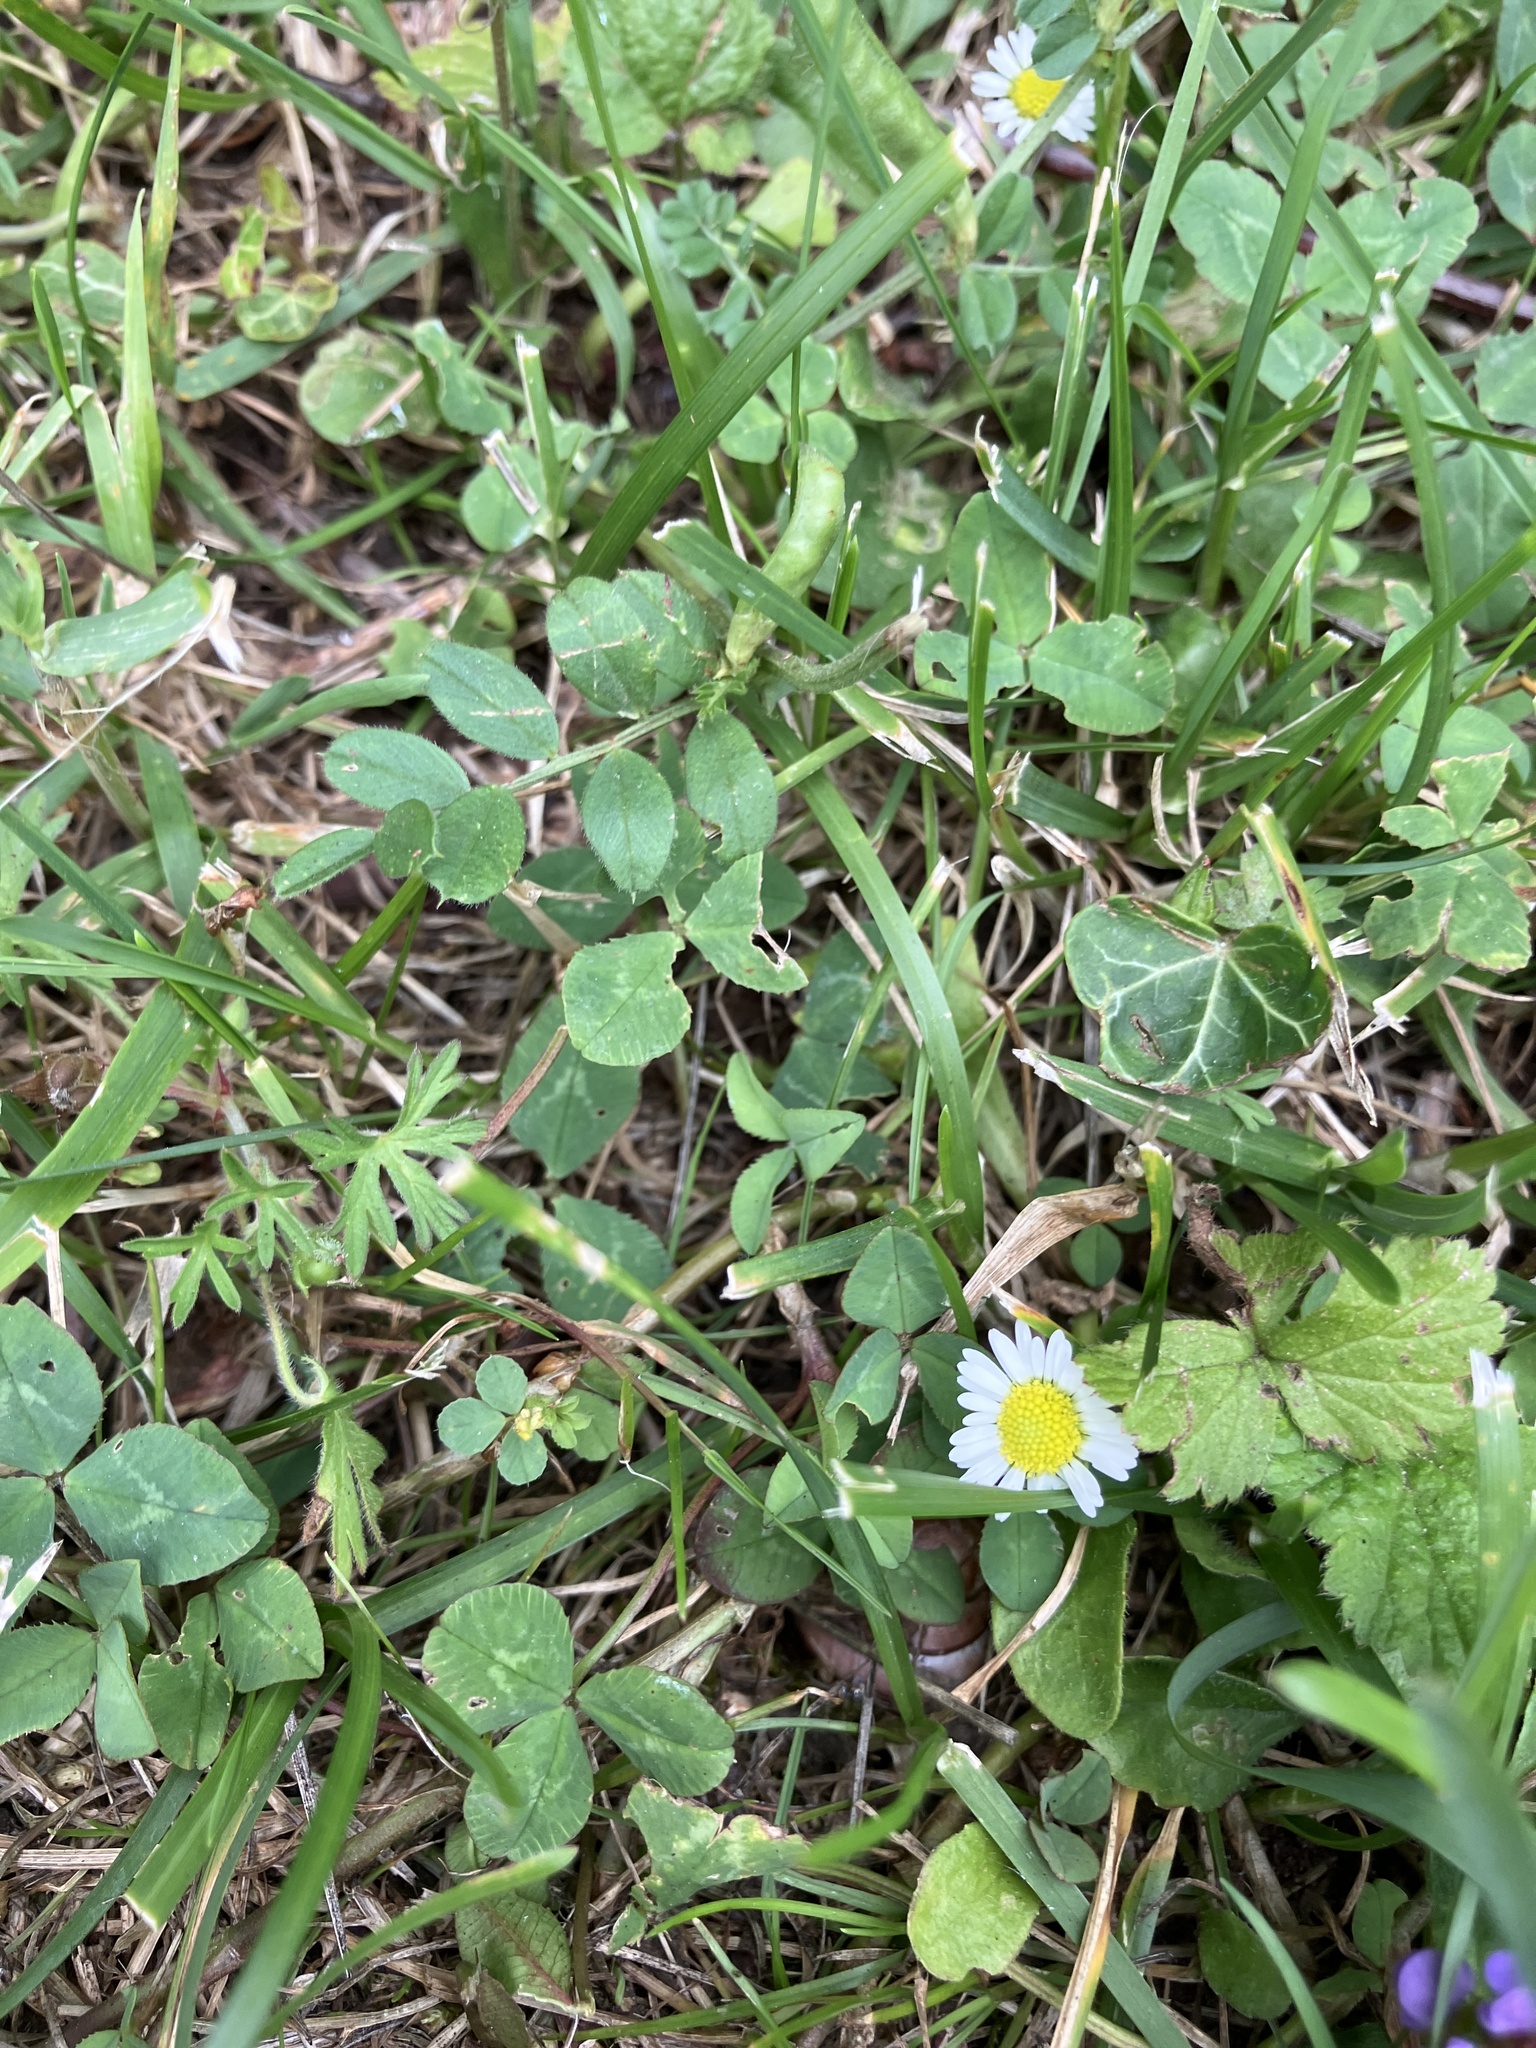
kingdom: Plantae
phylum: Tracheophyta
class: Magnoliopsida
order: Asterales
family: Asteraceae
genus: Bellis
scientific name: Bellis perennis
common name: Lawndaisy
